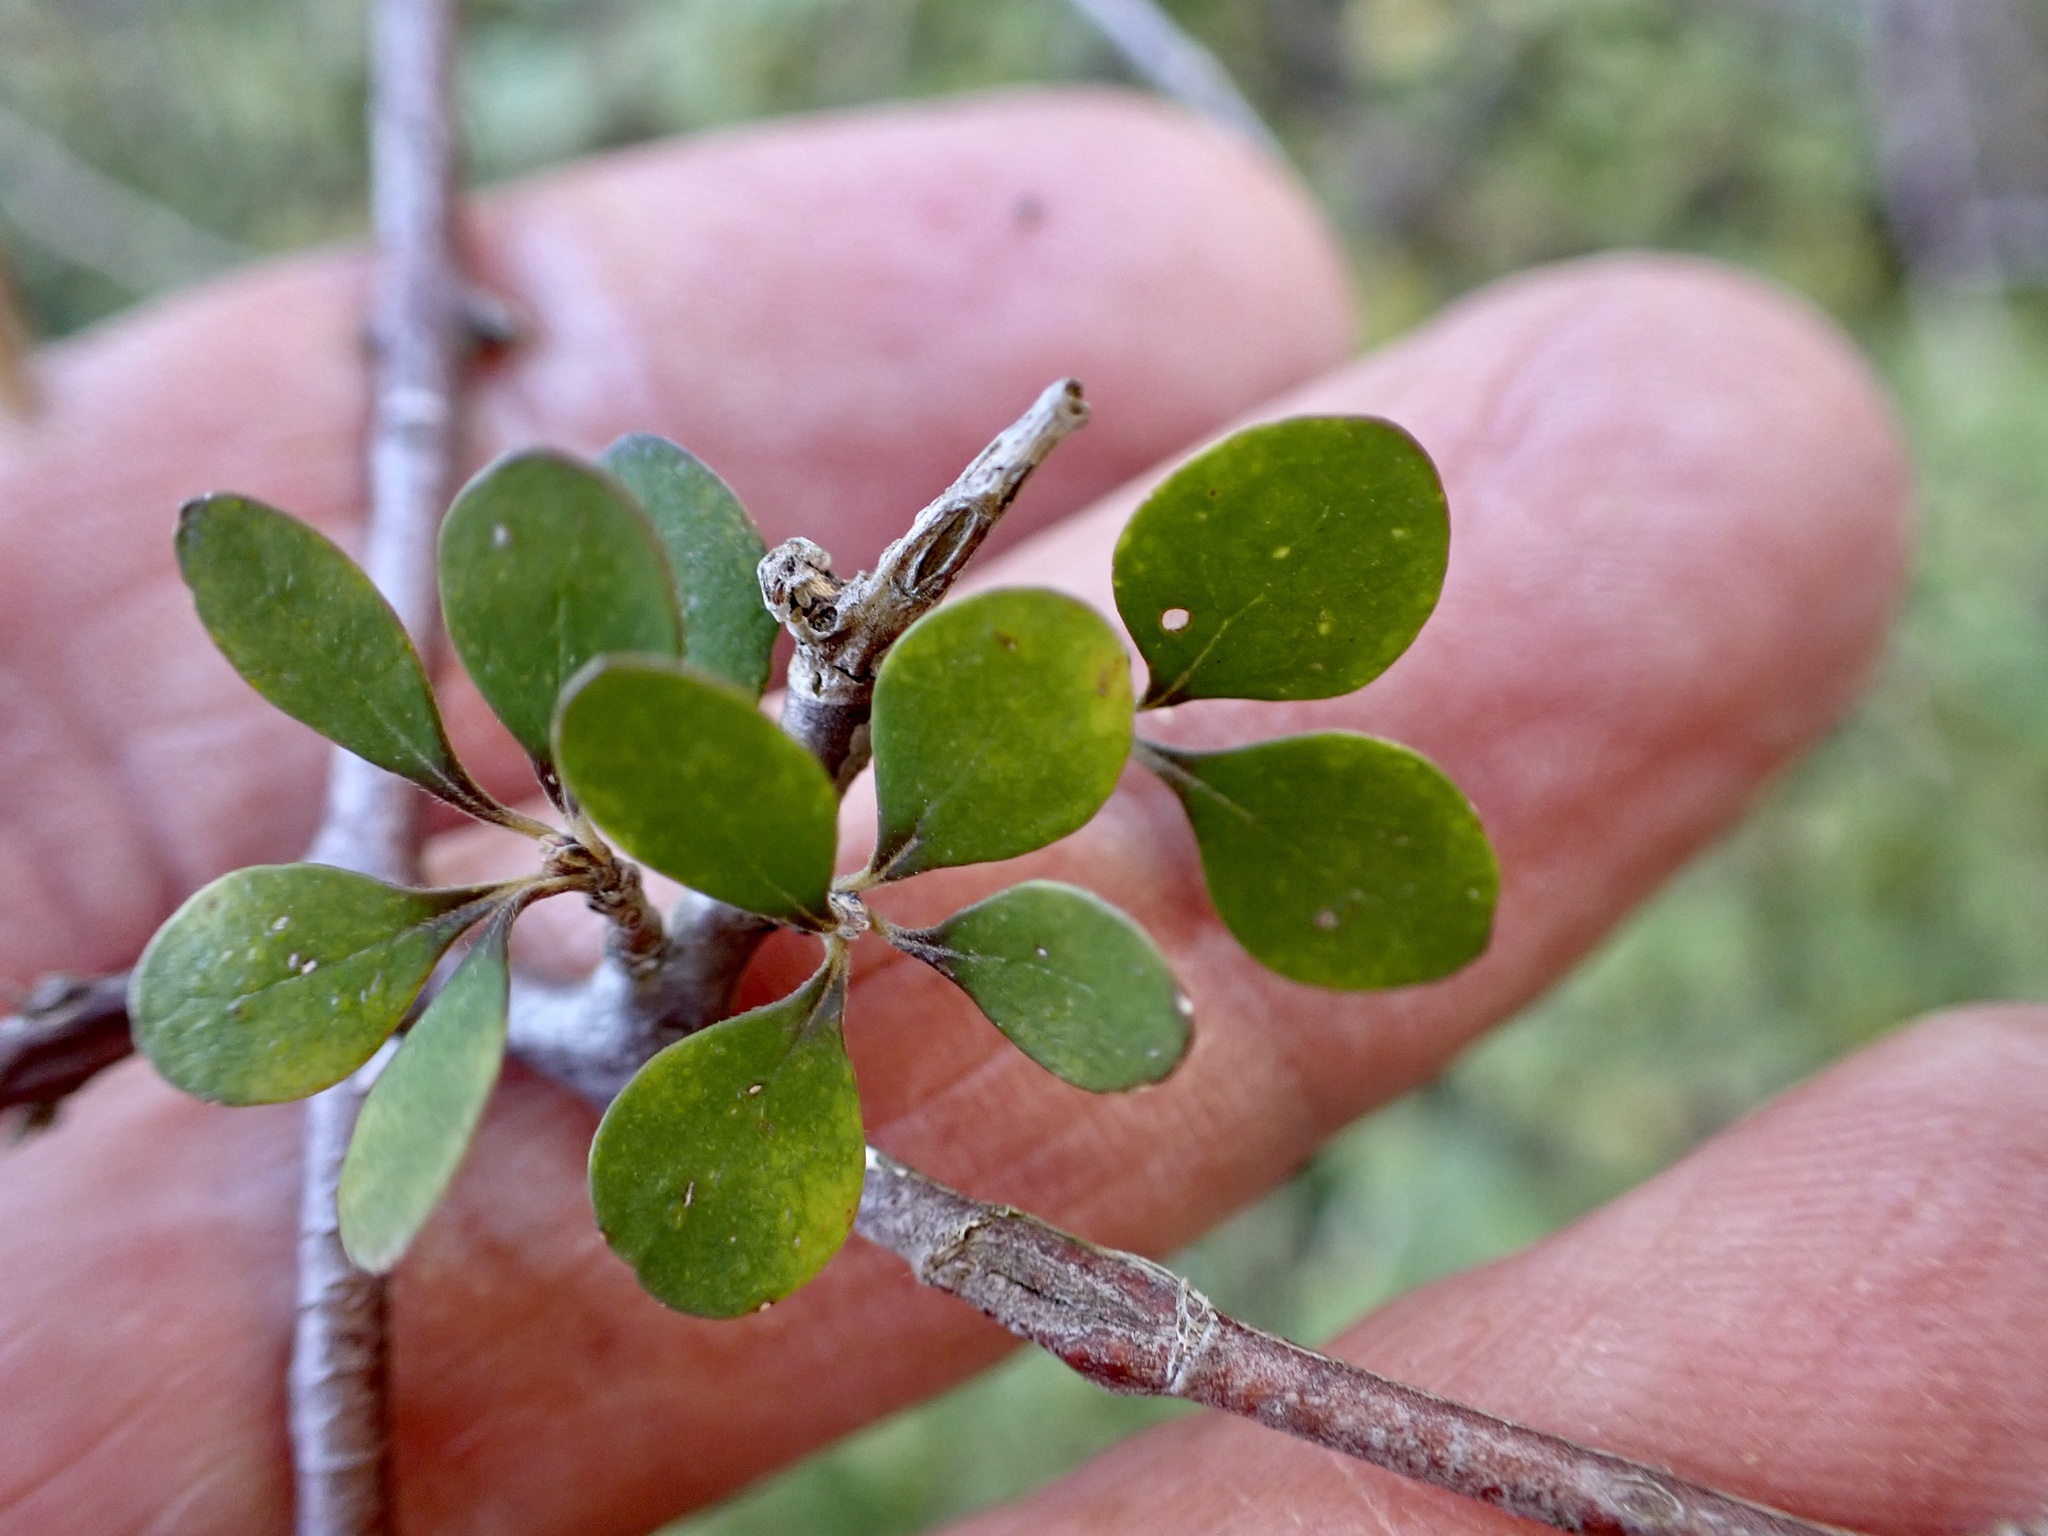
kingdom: Plantae
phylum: Tracheophyta
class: Magnoliopsida
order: Gentianales
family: Rubiaceae
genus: Coprosma
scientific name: Coprosma crassifolia
